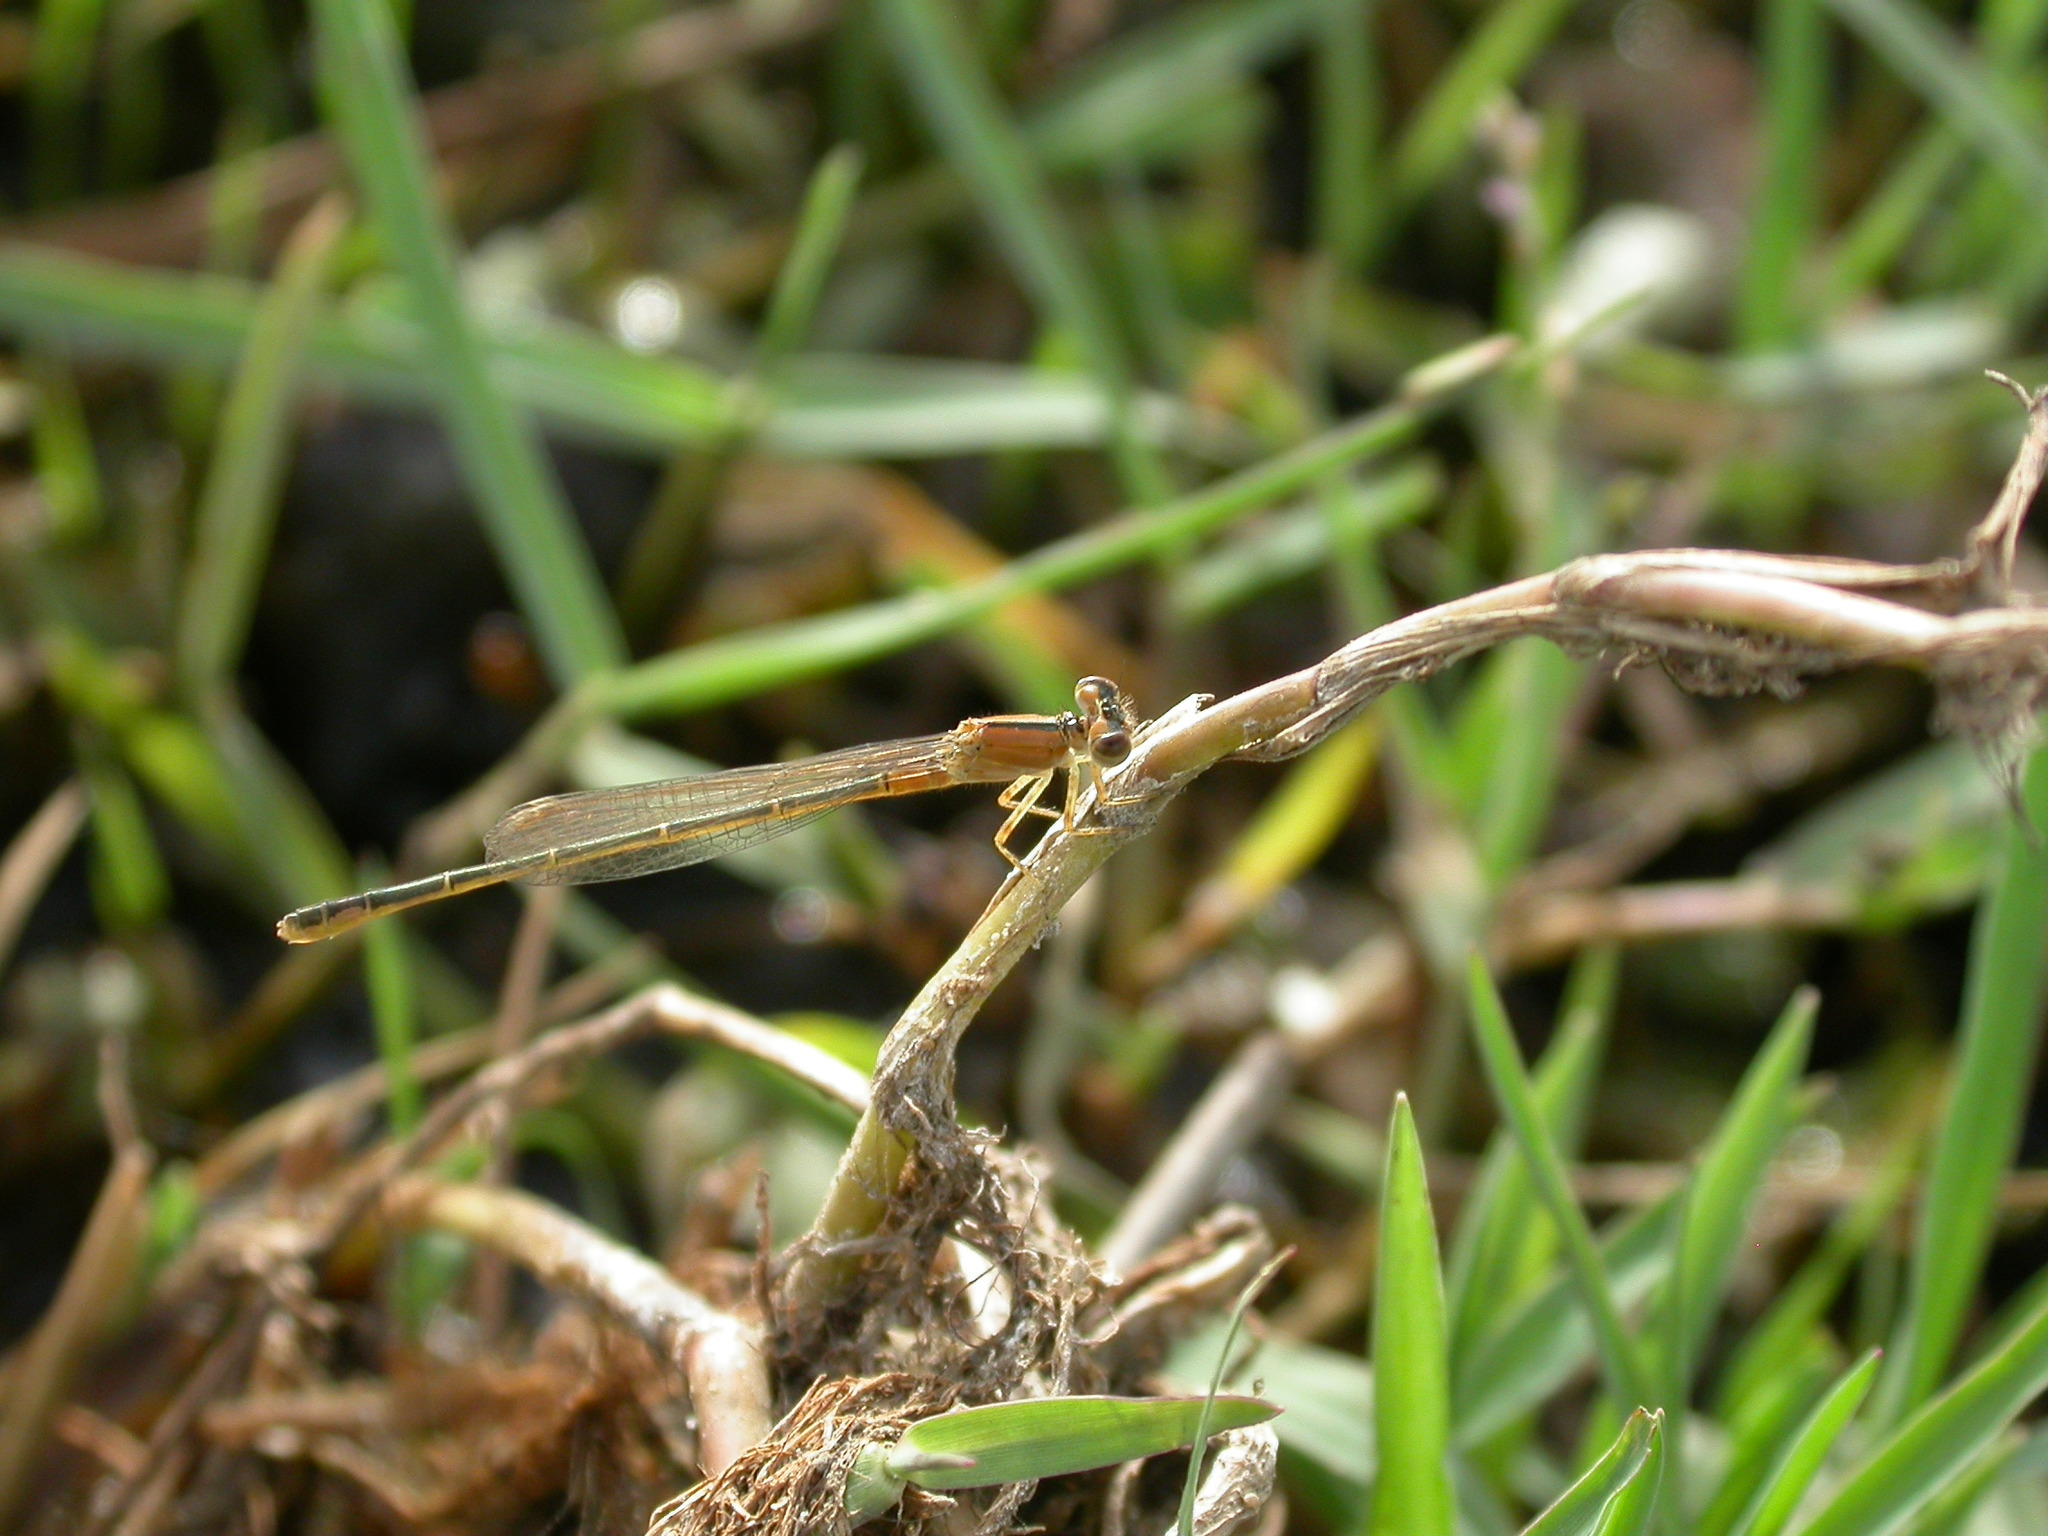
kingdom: Animalia
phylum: Arthropoda
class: Insecta
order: Odonata
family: Coenagrionidae
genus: Ischnura
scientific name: Ischnura pumilio
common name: Scarce blue-tailed damselfly
